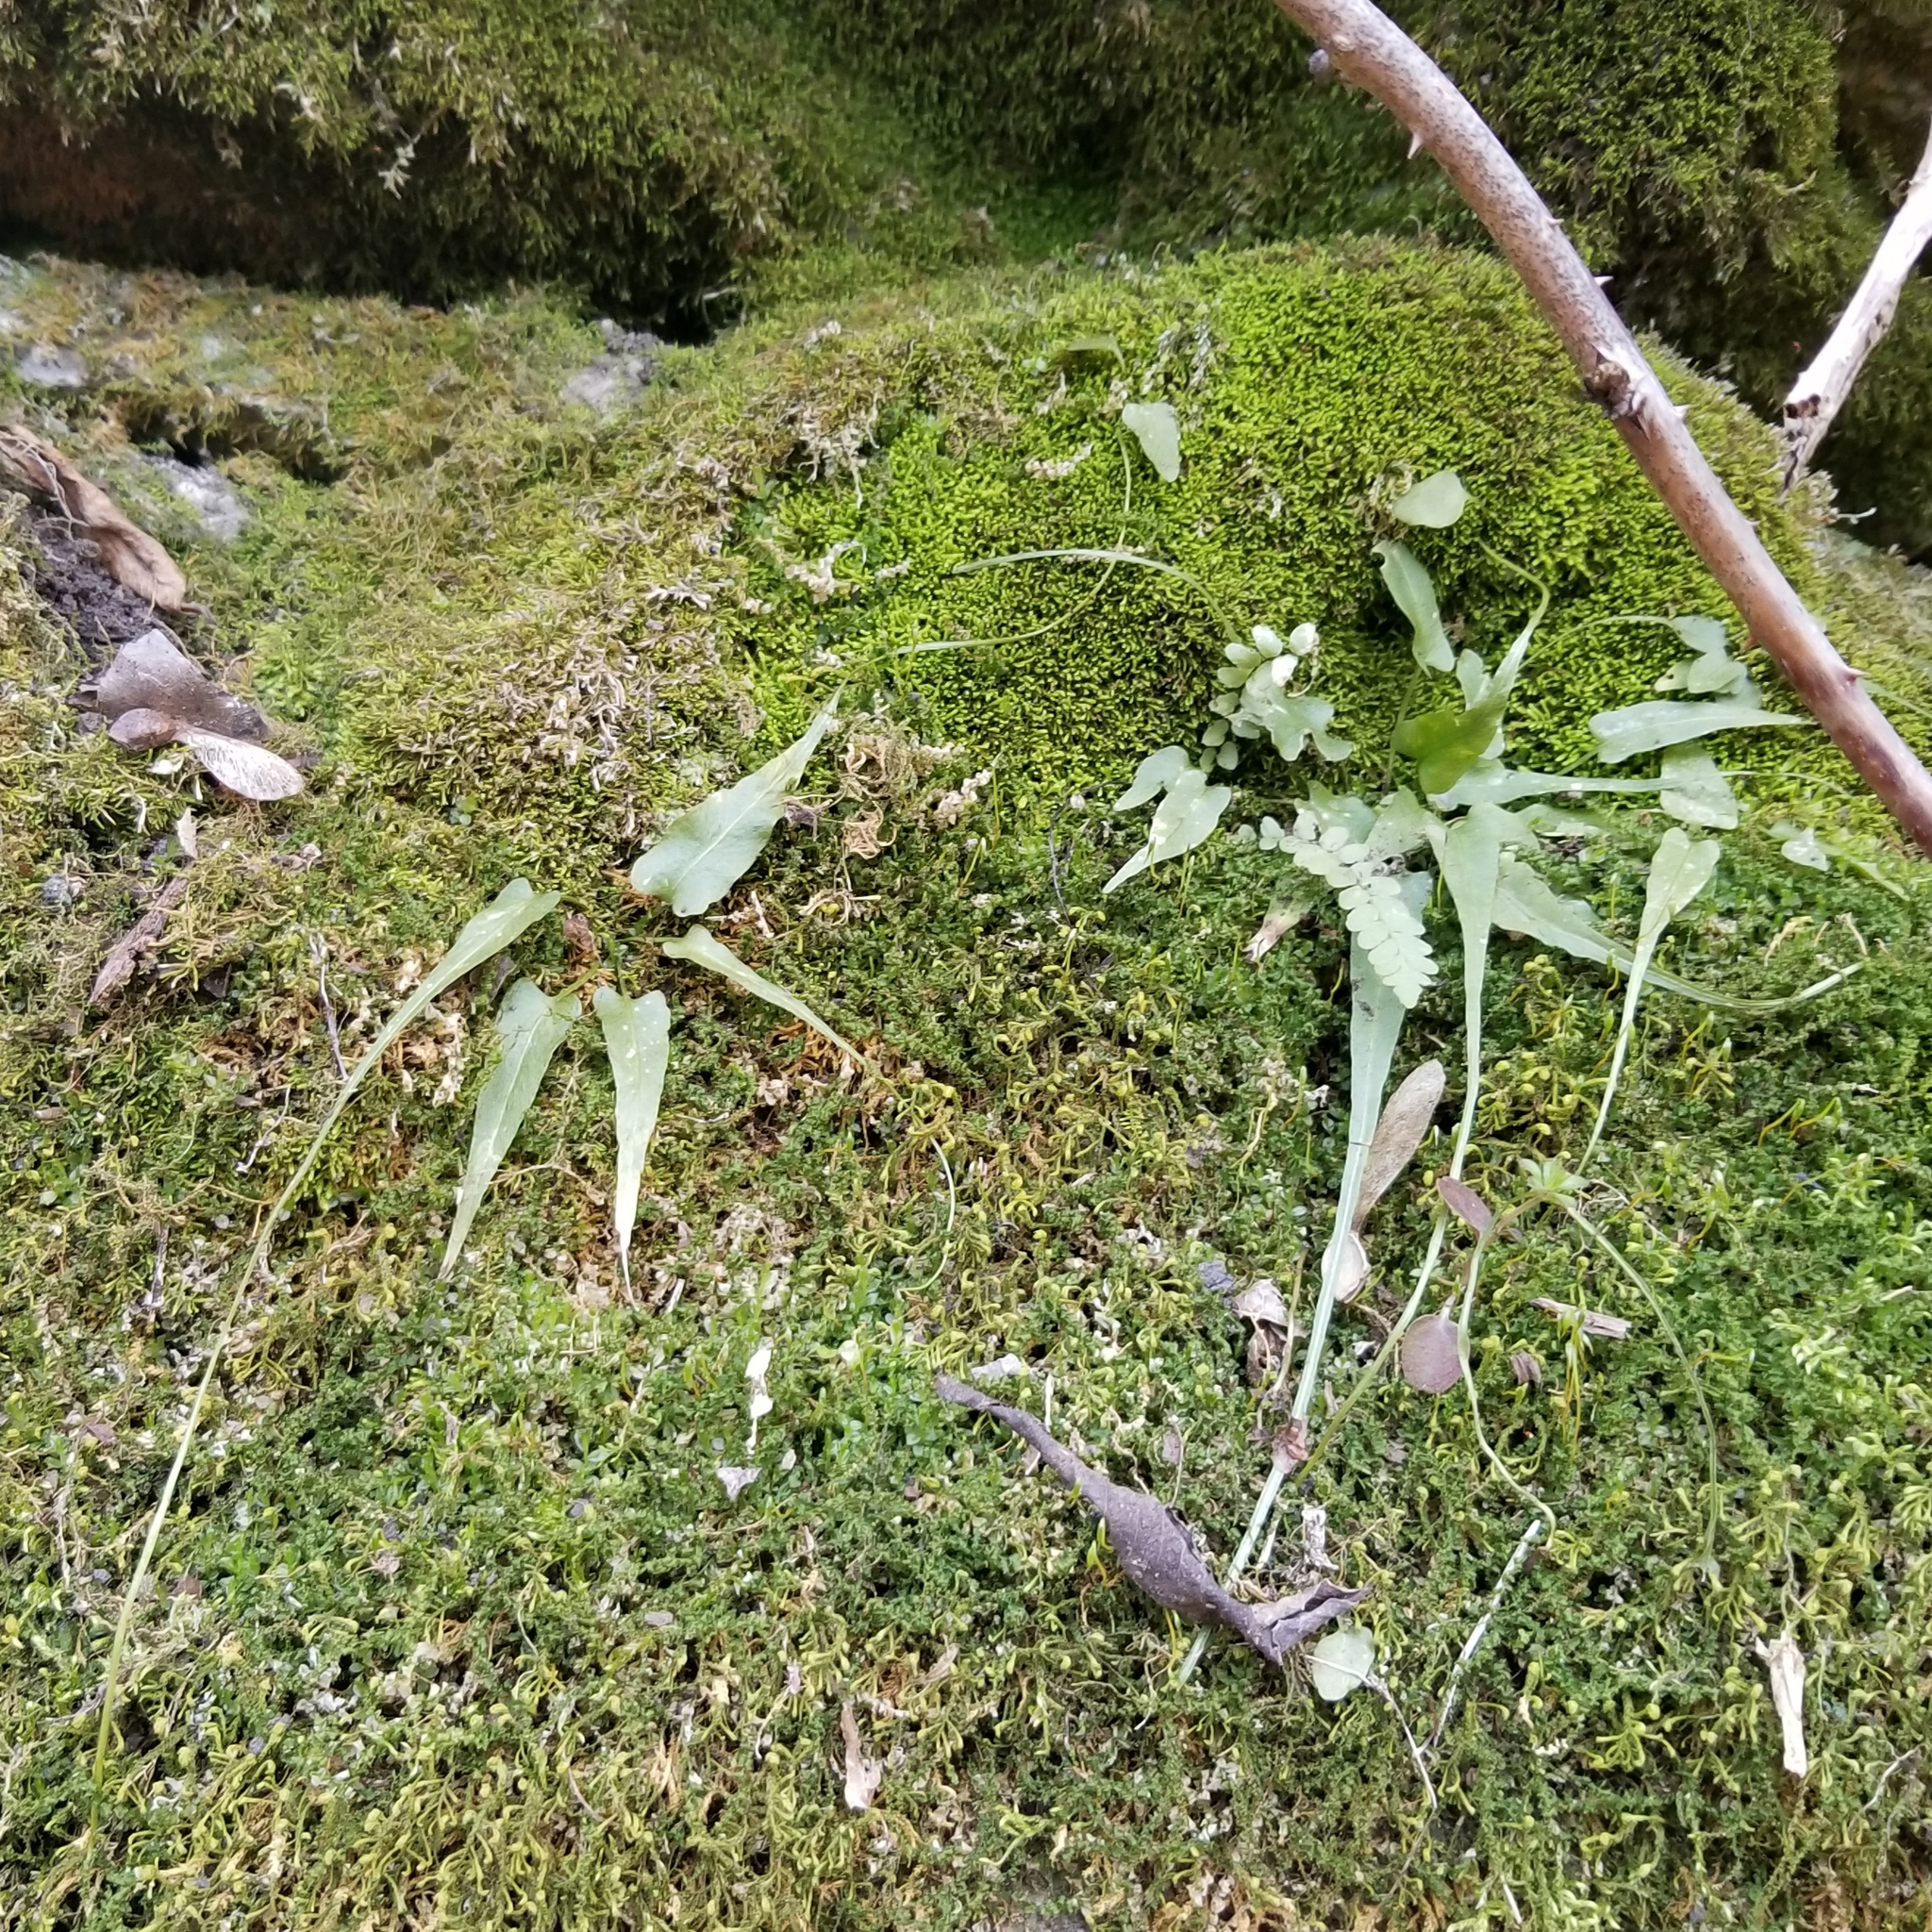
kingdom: Plantae
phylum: Tracheophyta
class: Polypodiopsida
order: Polypodiales
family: Aspleniaceae
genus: Asplenium
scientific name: Asplenium rhizophyllum
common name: Walking fern
